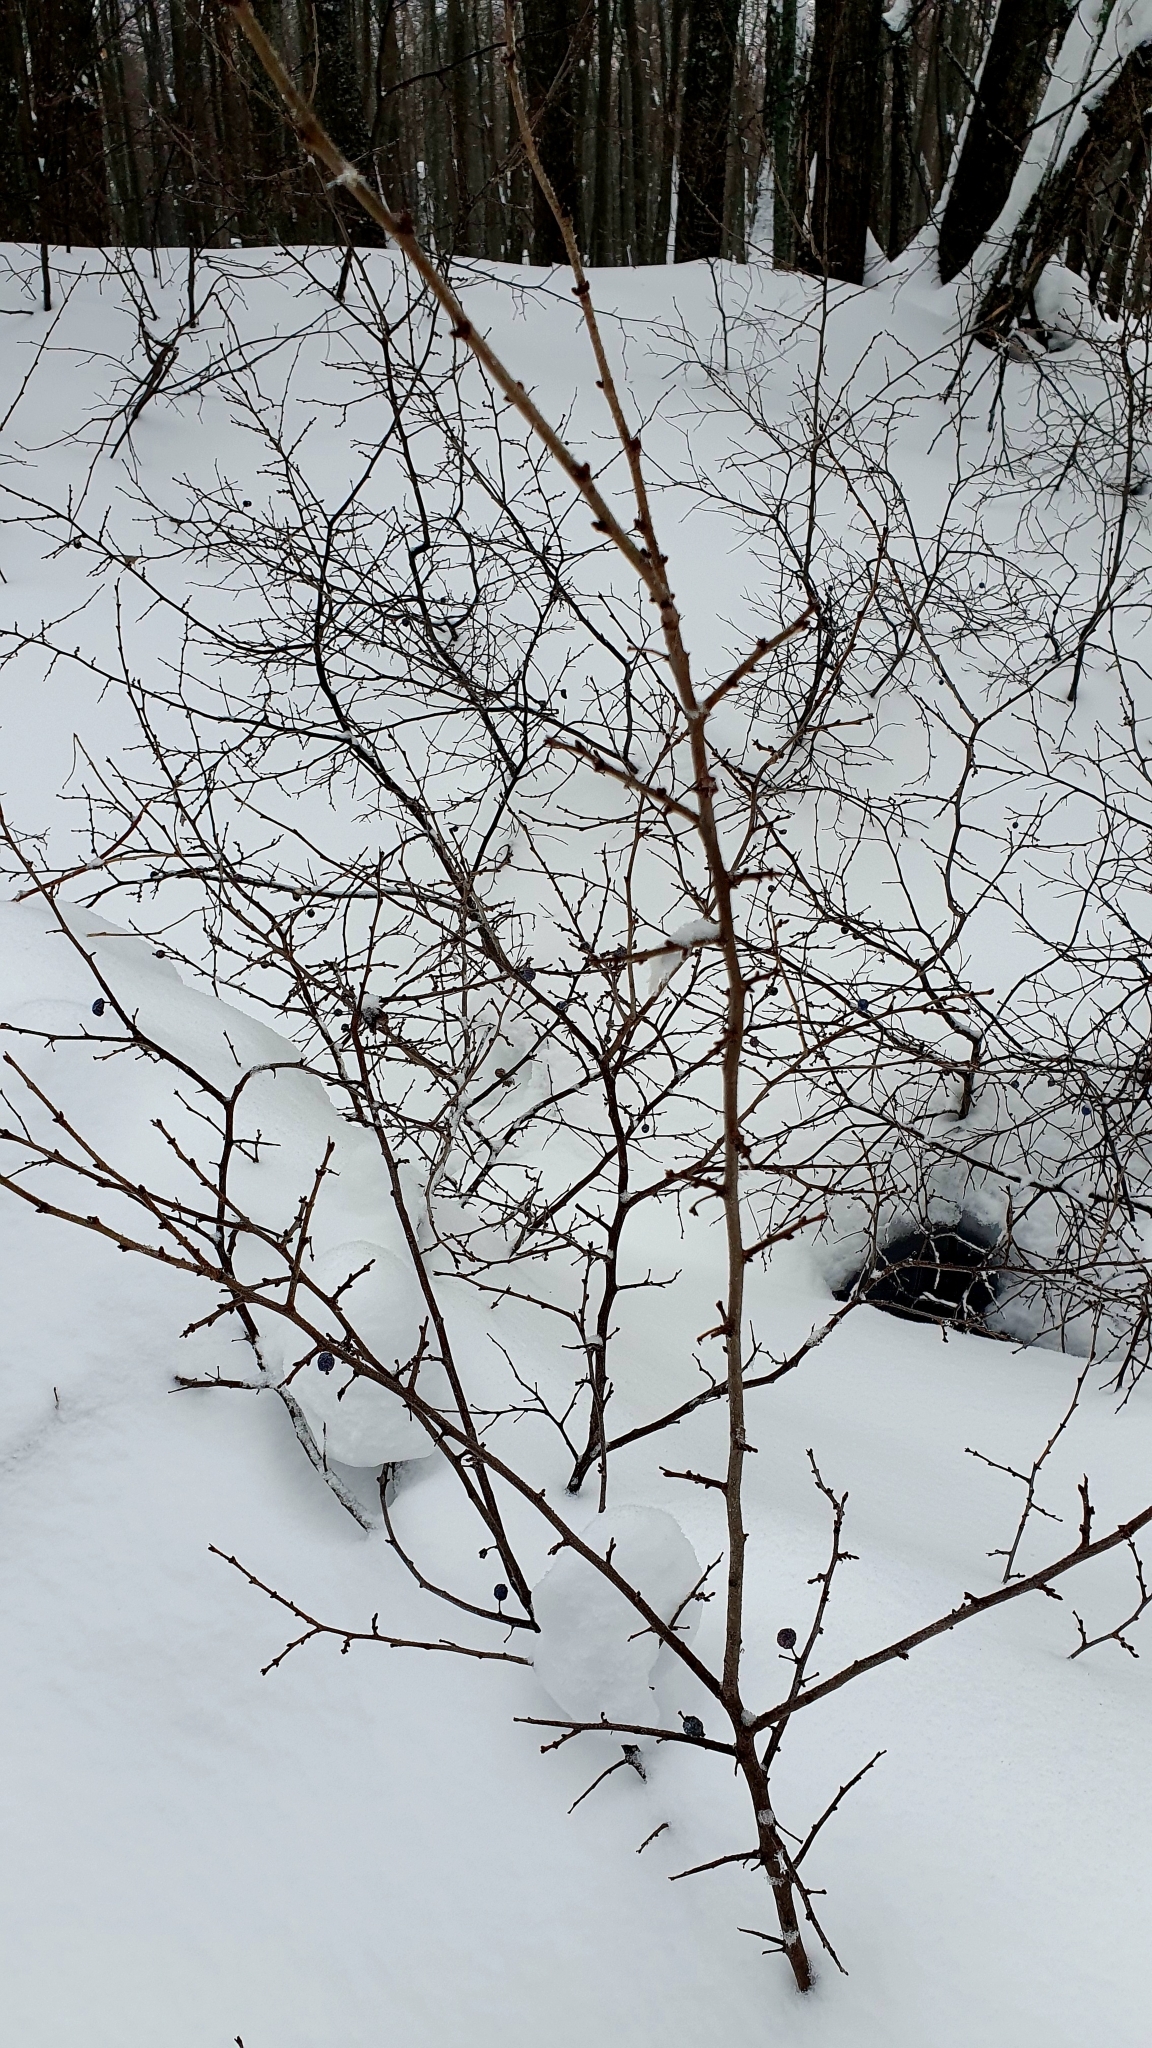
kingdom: Plantae
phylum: Tracheophyta
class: Magnoliopsida
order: Rosales
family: Rosaceae
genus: Prunus
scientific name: Prunus spinosa
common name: Blackthorn
